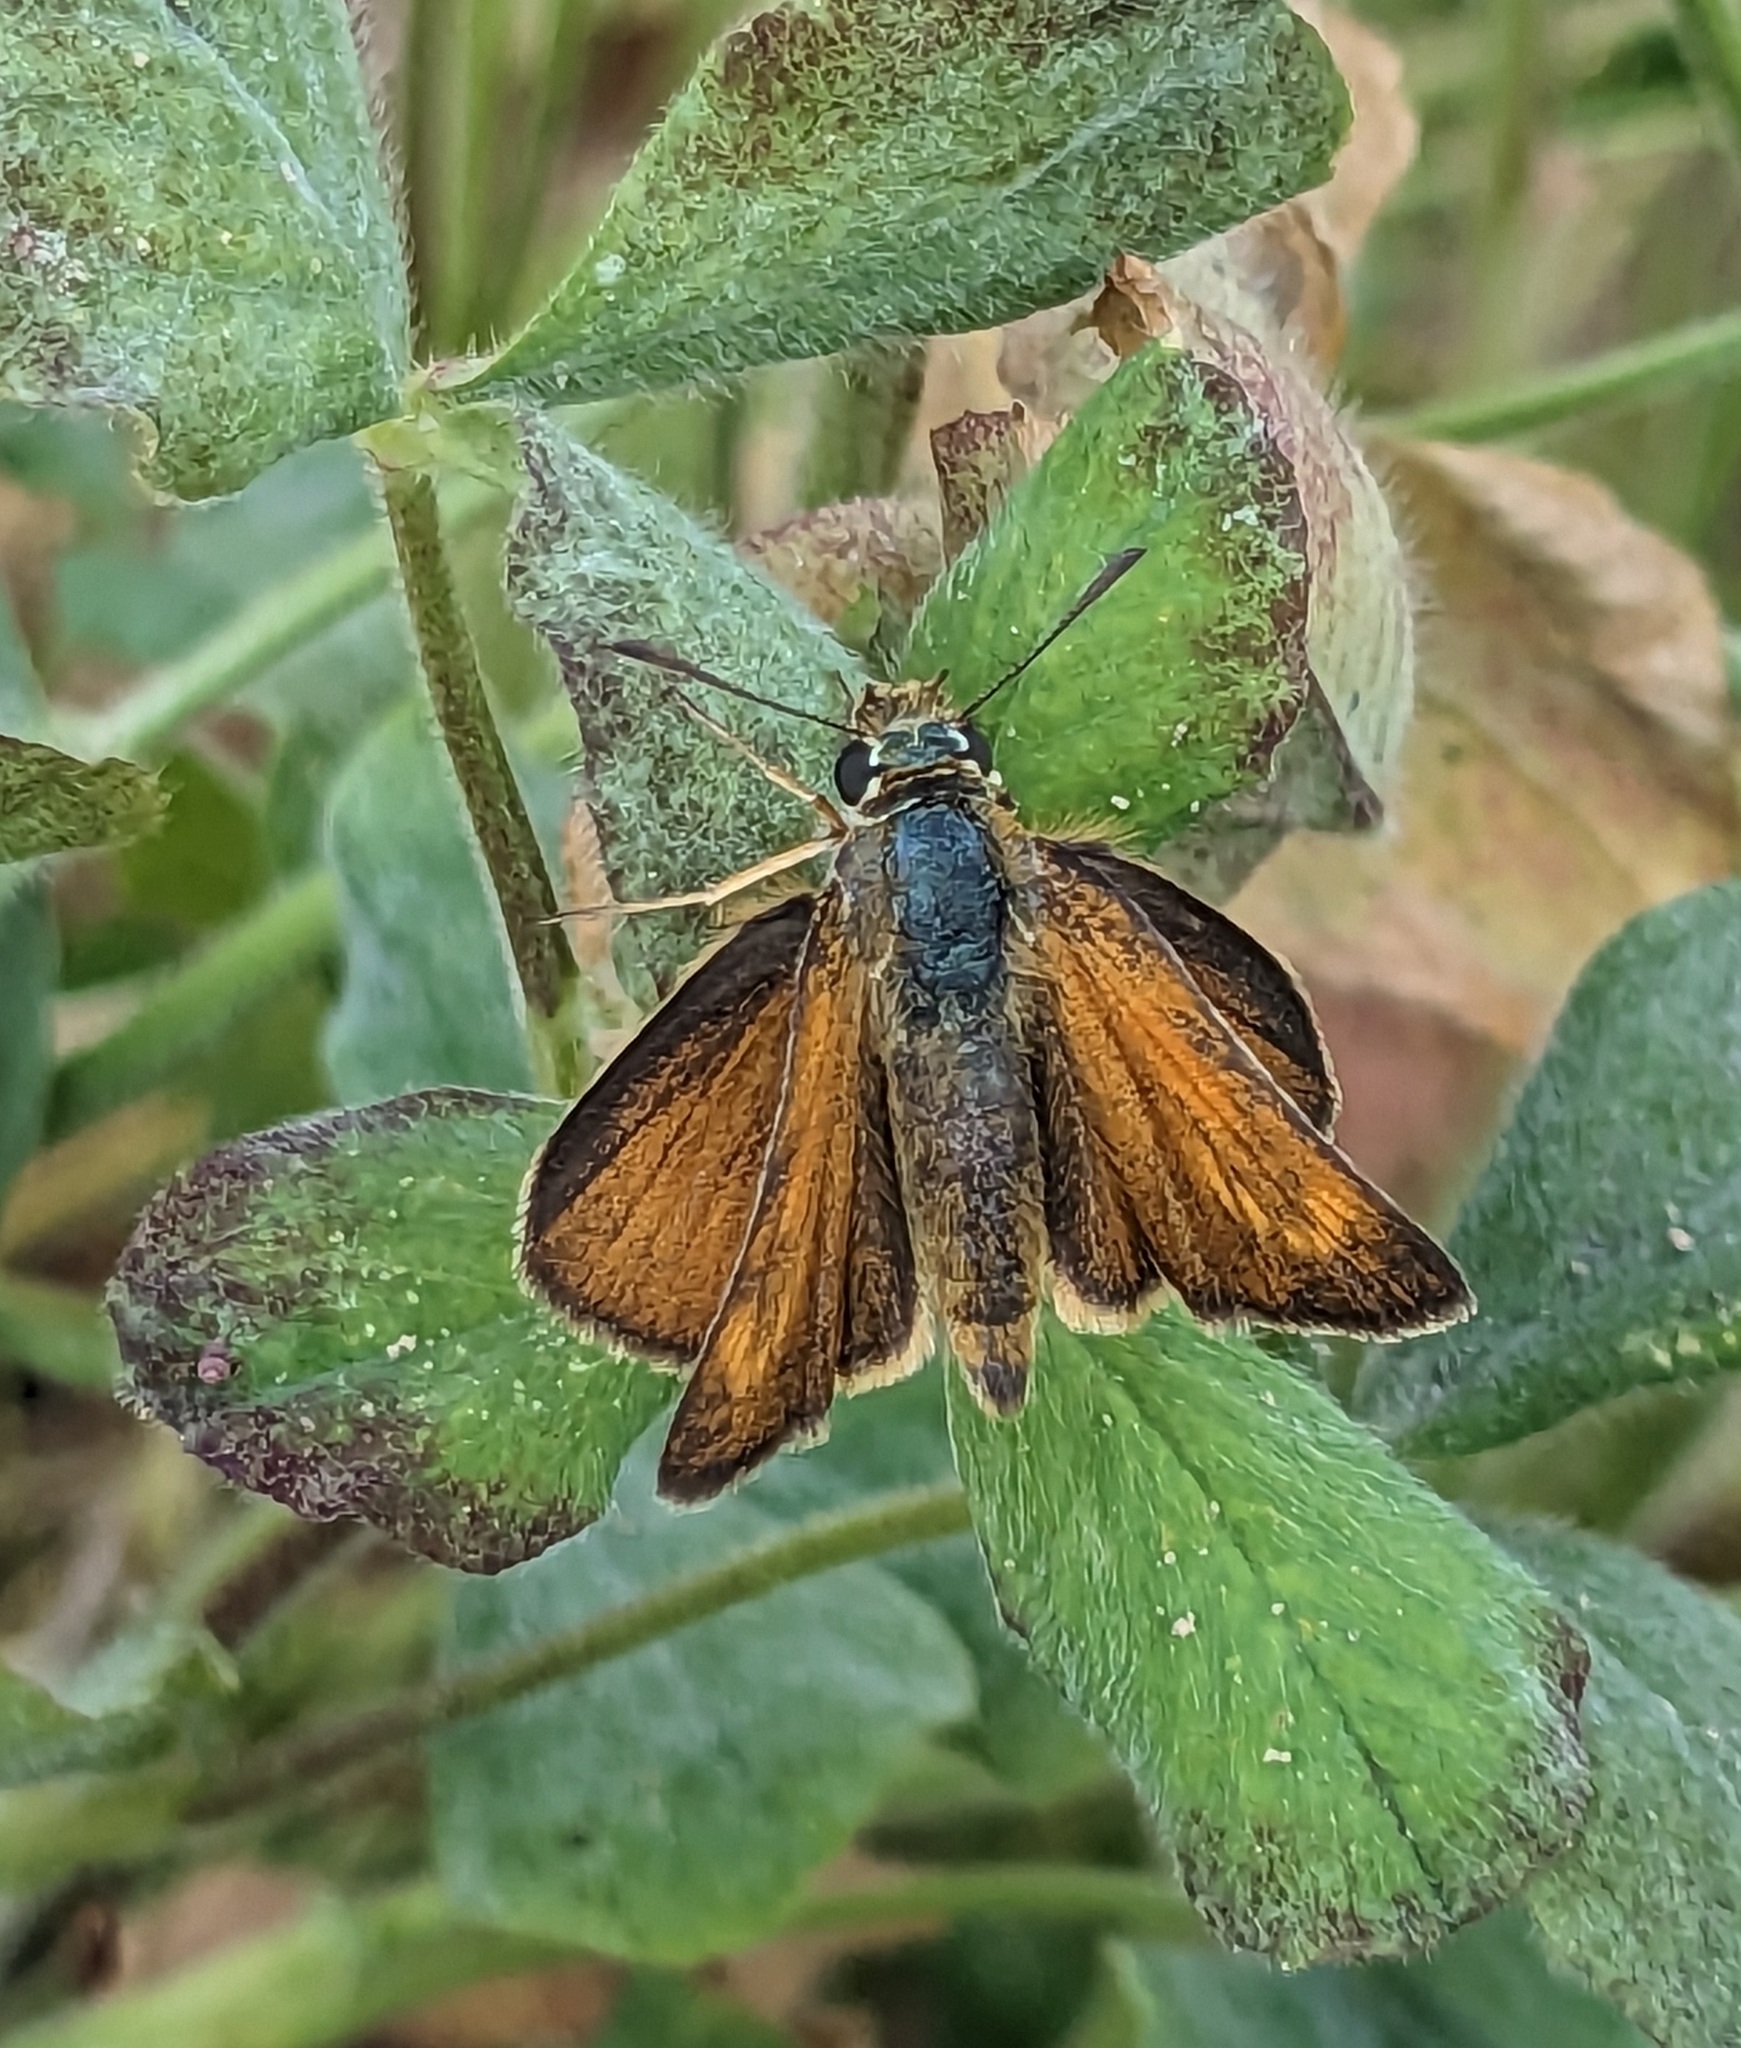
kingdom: Animalia
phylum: Arthropoda
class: Insecta
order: Lepidoptera
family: Hesperiidae
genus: Thymelicus
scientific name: Thymelicus acteon
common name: Lulworth skipper
